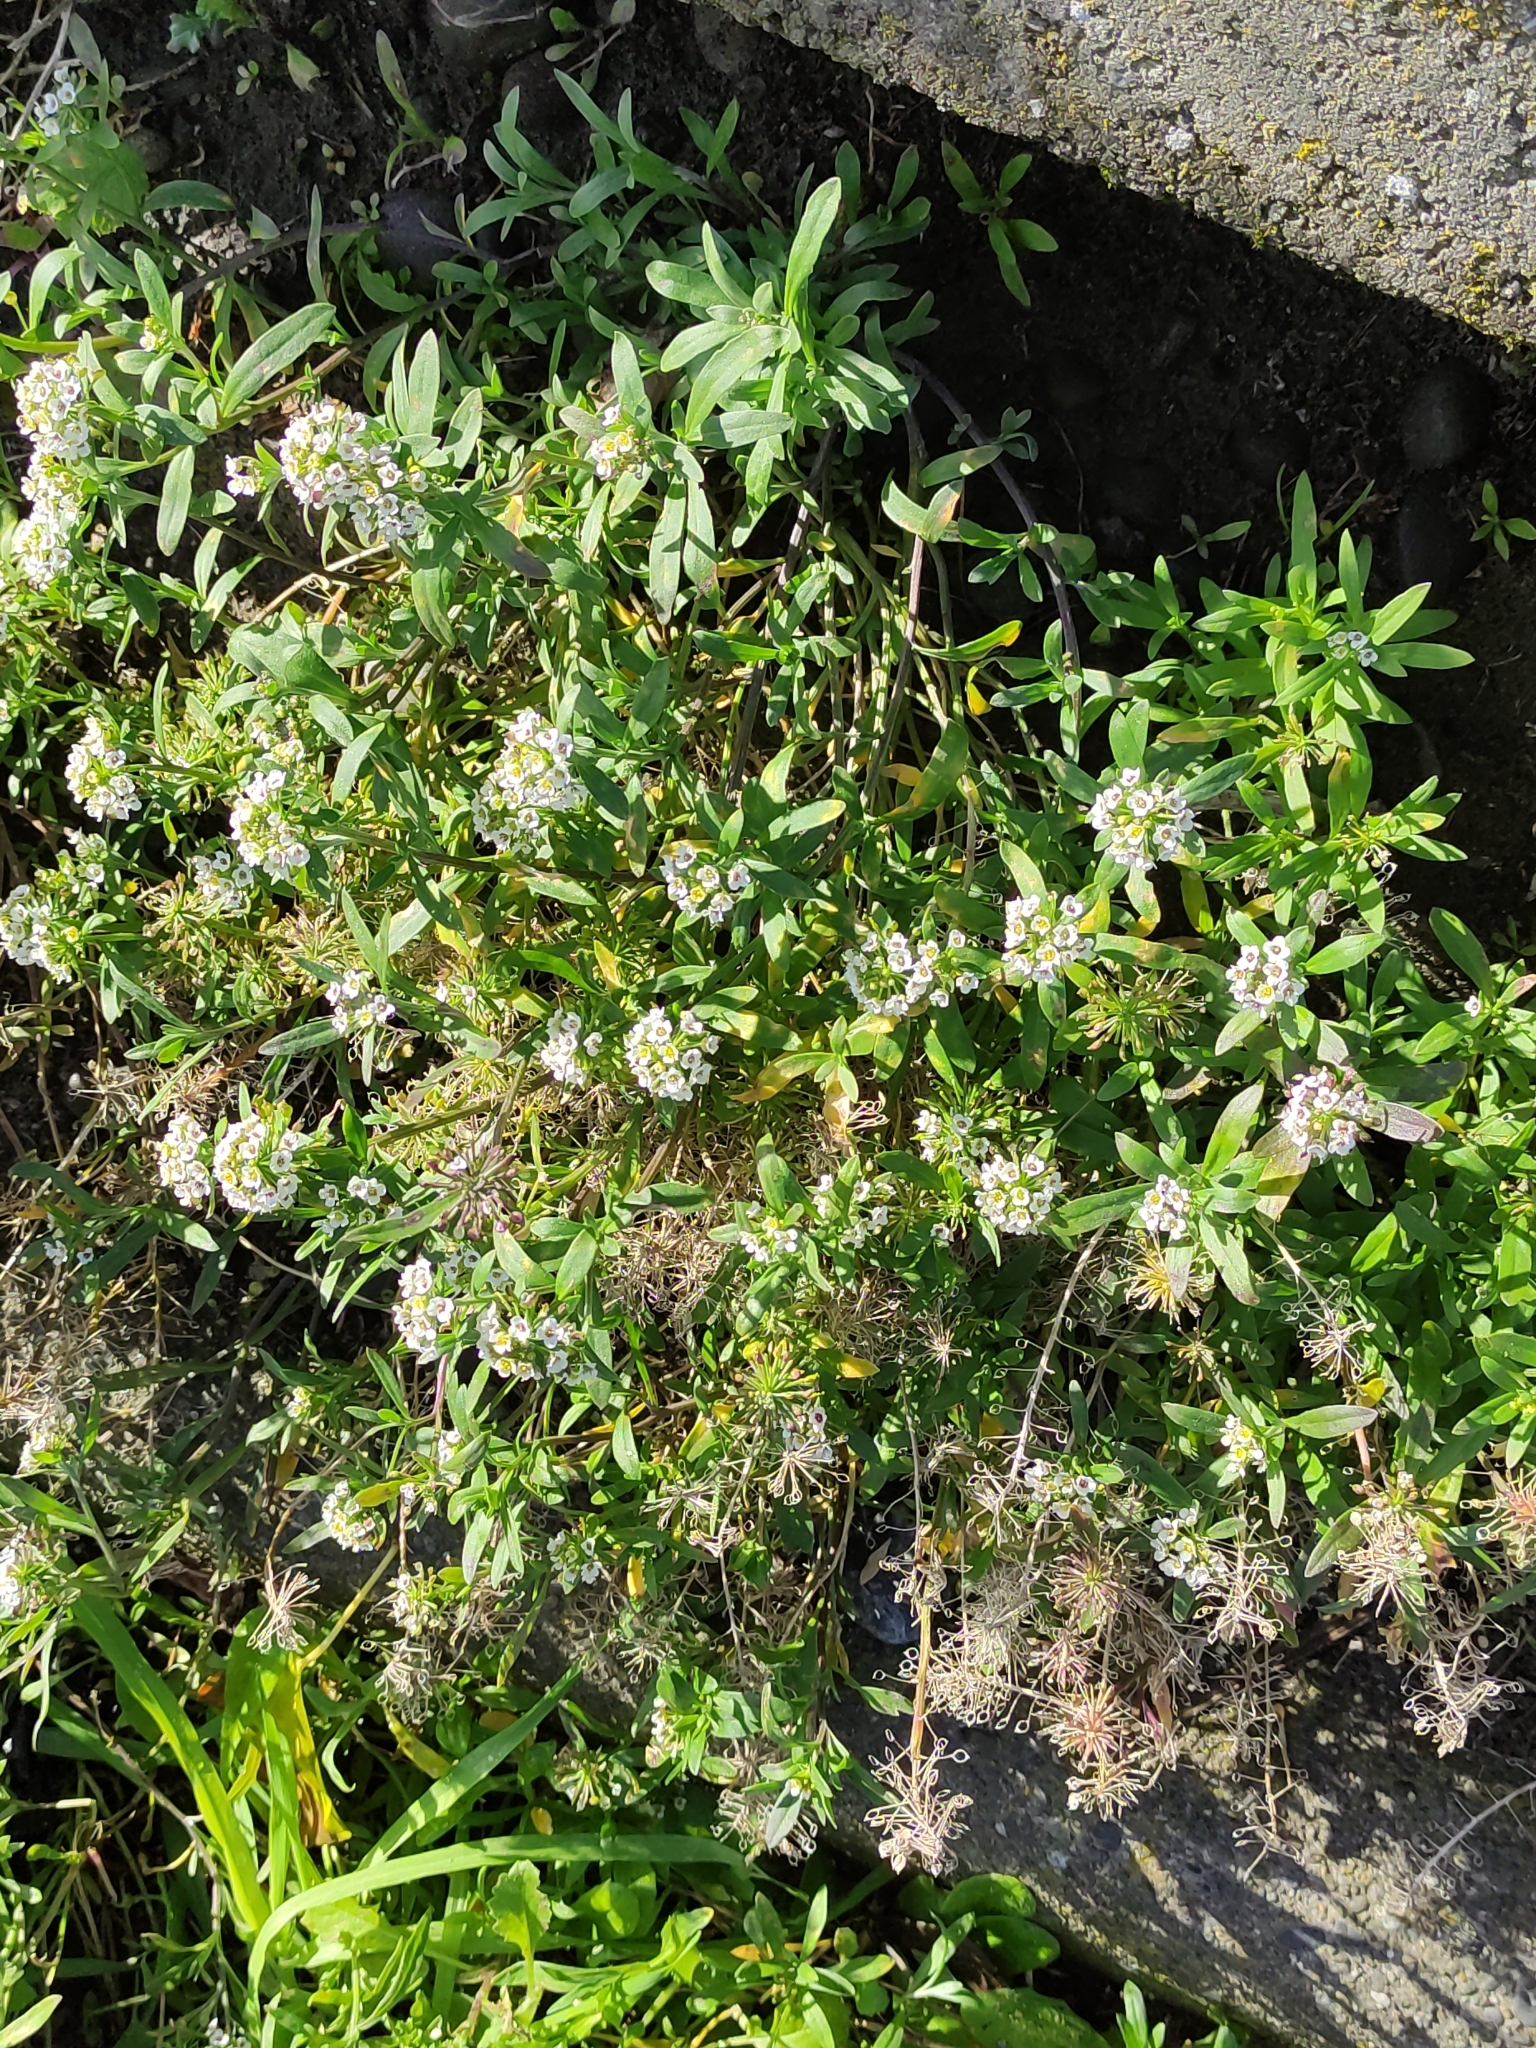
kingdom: Plantae
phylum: Tracheophyta
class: Magnoliopsida
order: Brassicales
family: Brassicaceae
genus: Lobularia
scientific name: Lobularia maritima
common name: Sweet alison
